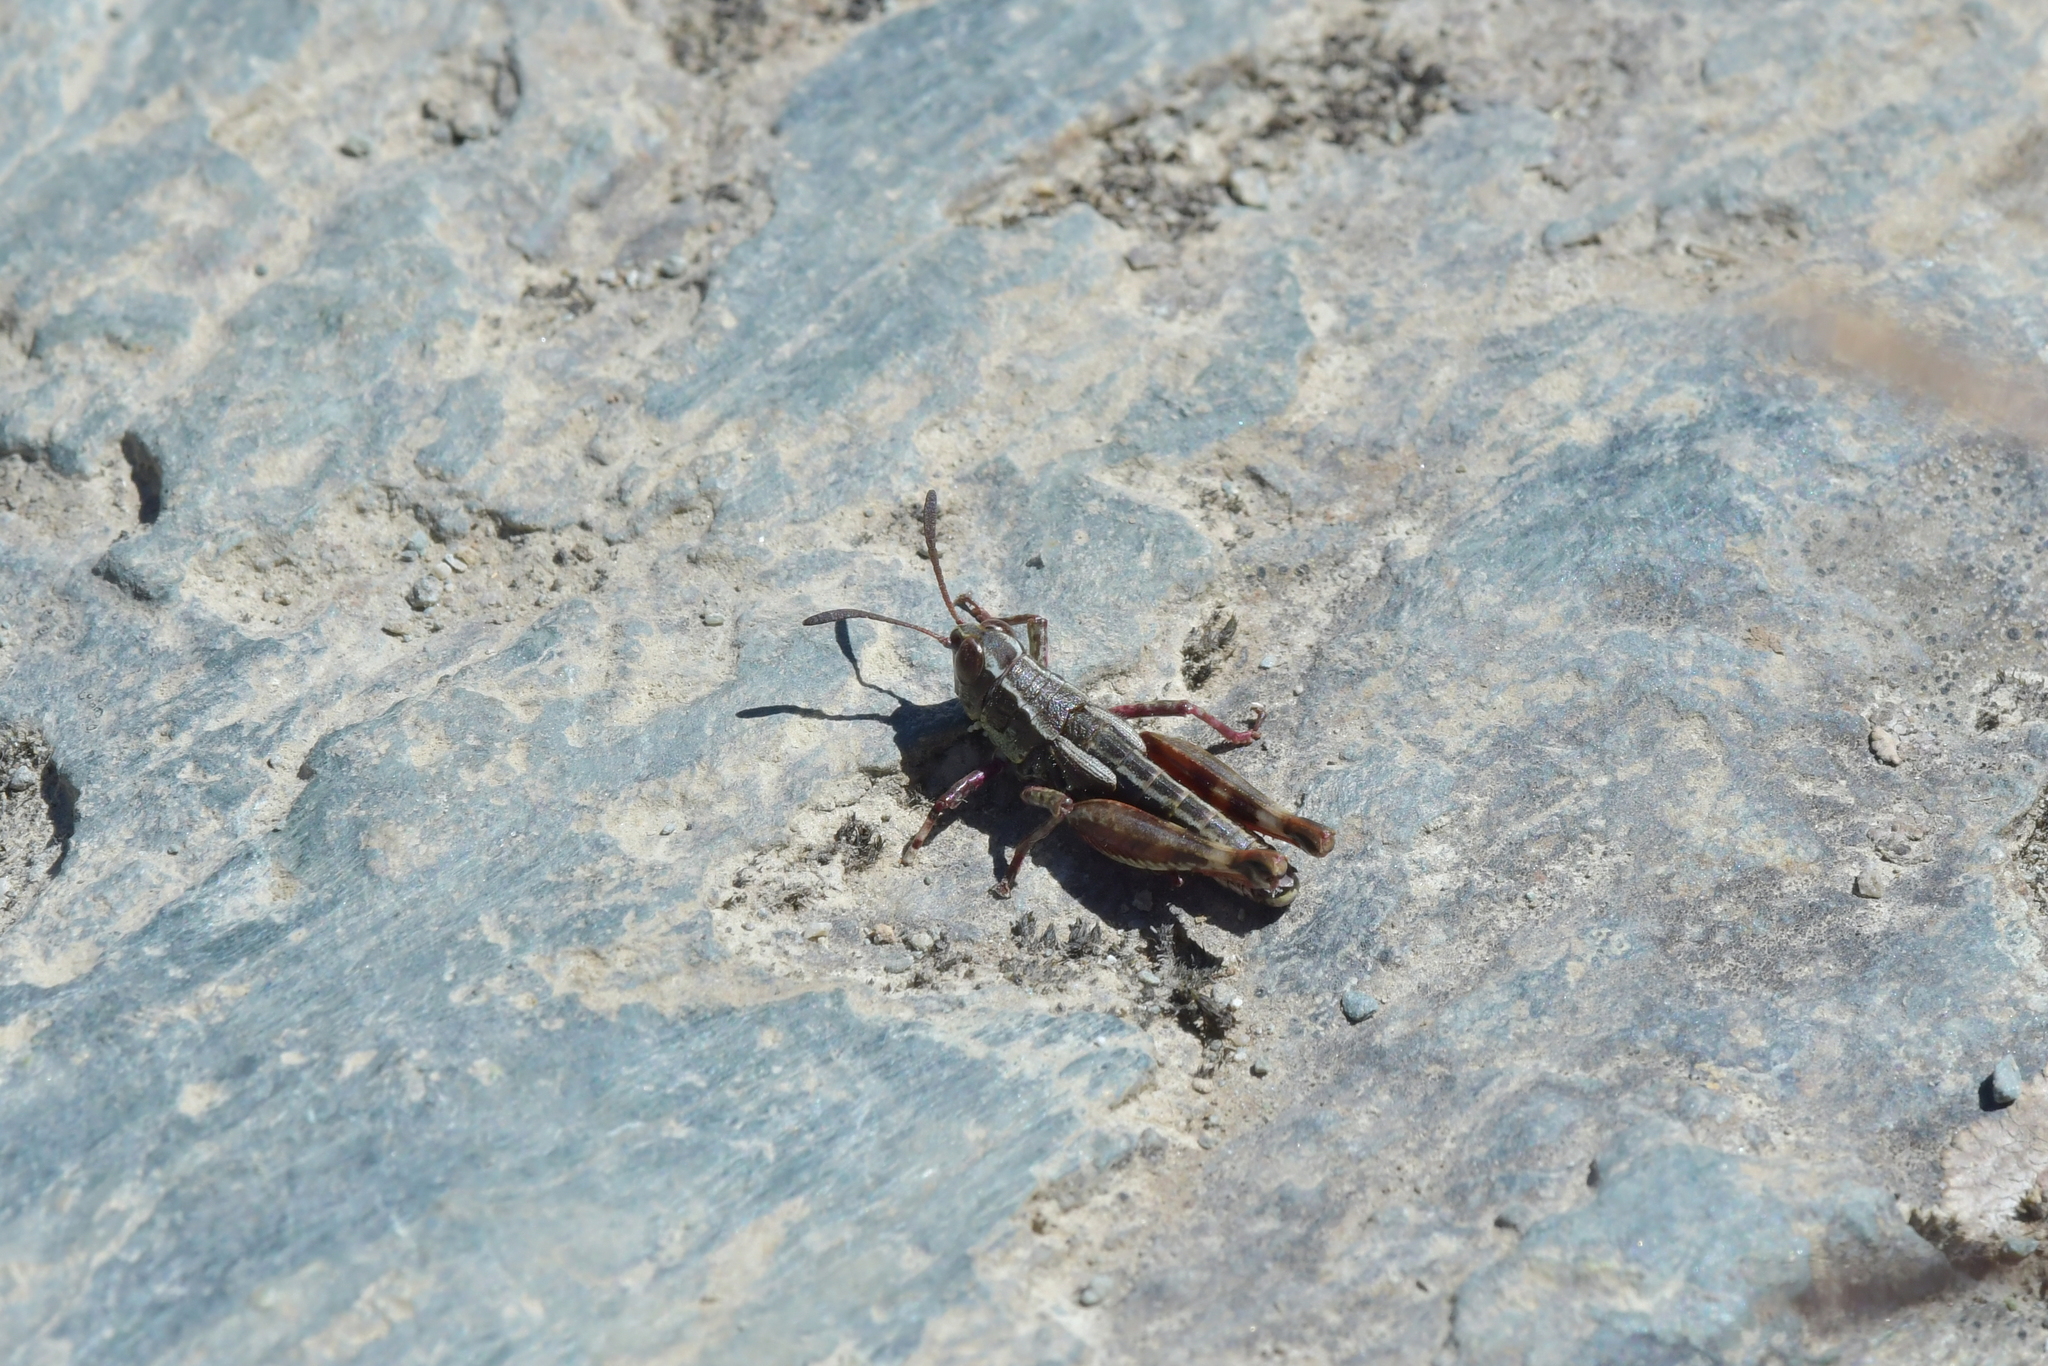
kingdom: Animalia
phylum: Arthropoda
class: Insecta
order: Orthoptera
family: Acrididae
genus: Sigaus
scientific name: Sigaus australis
